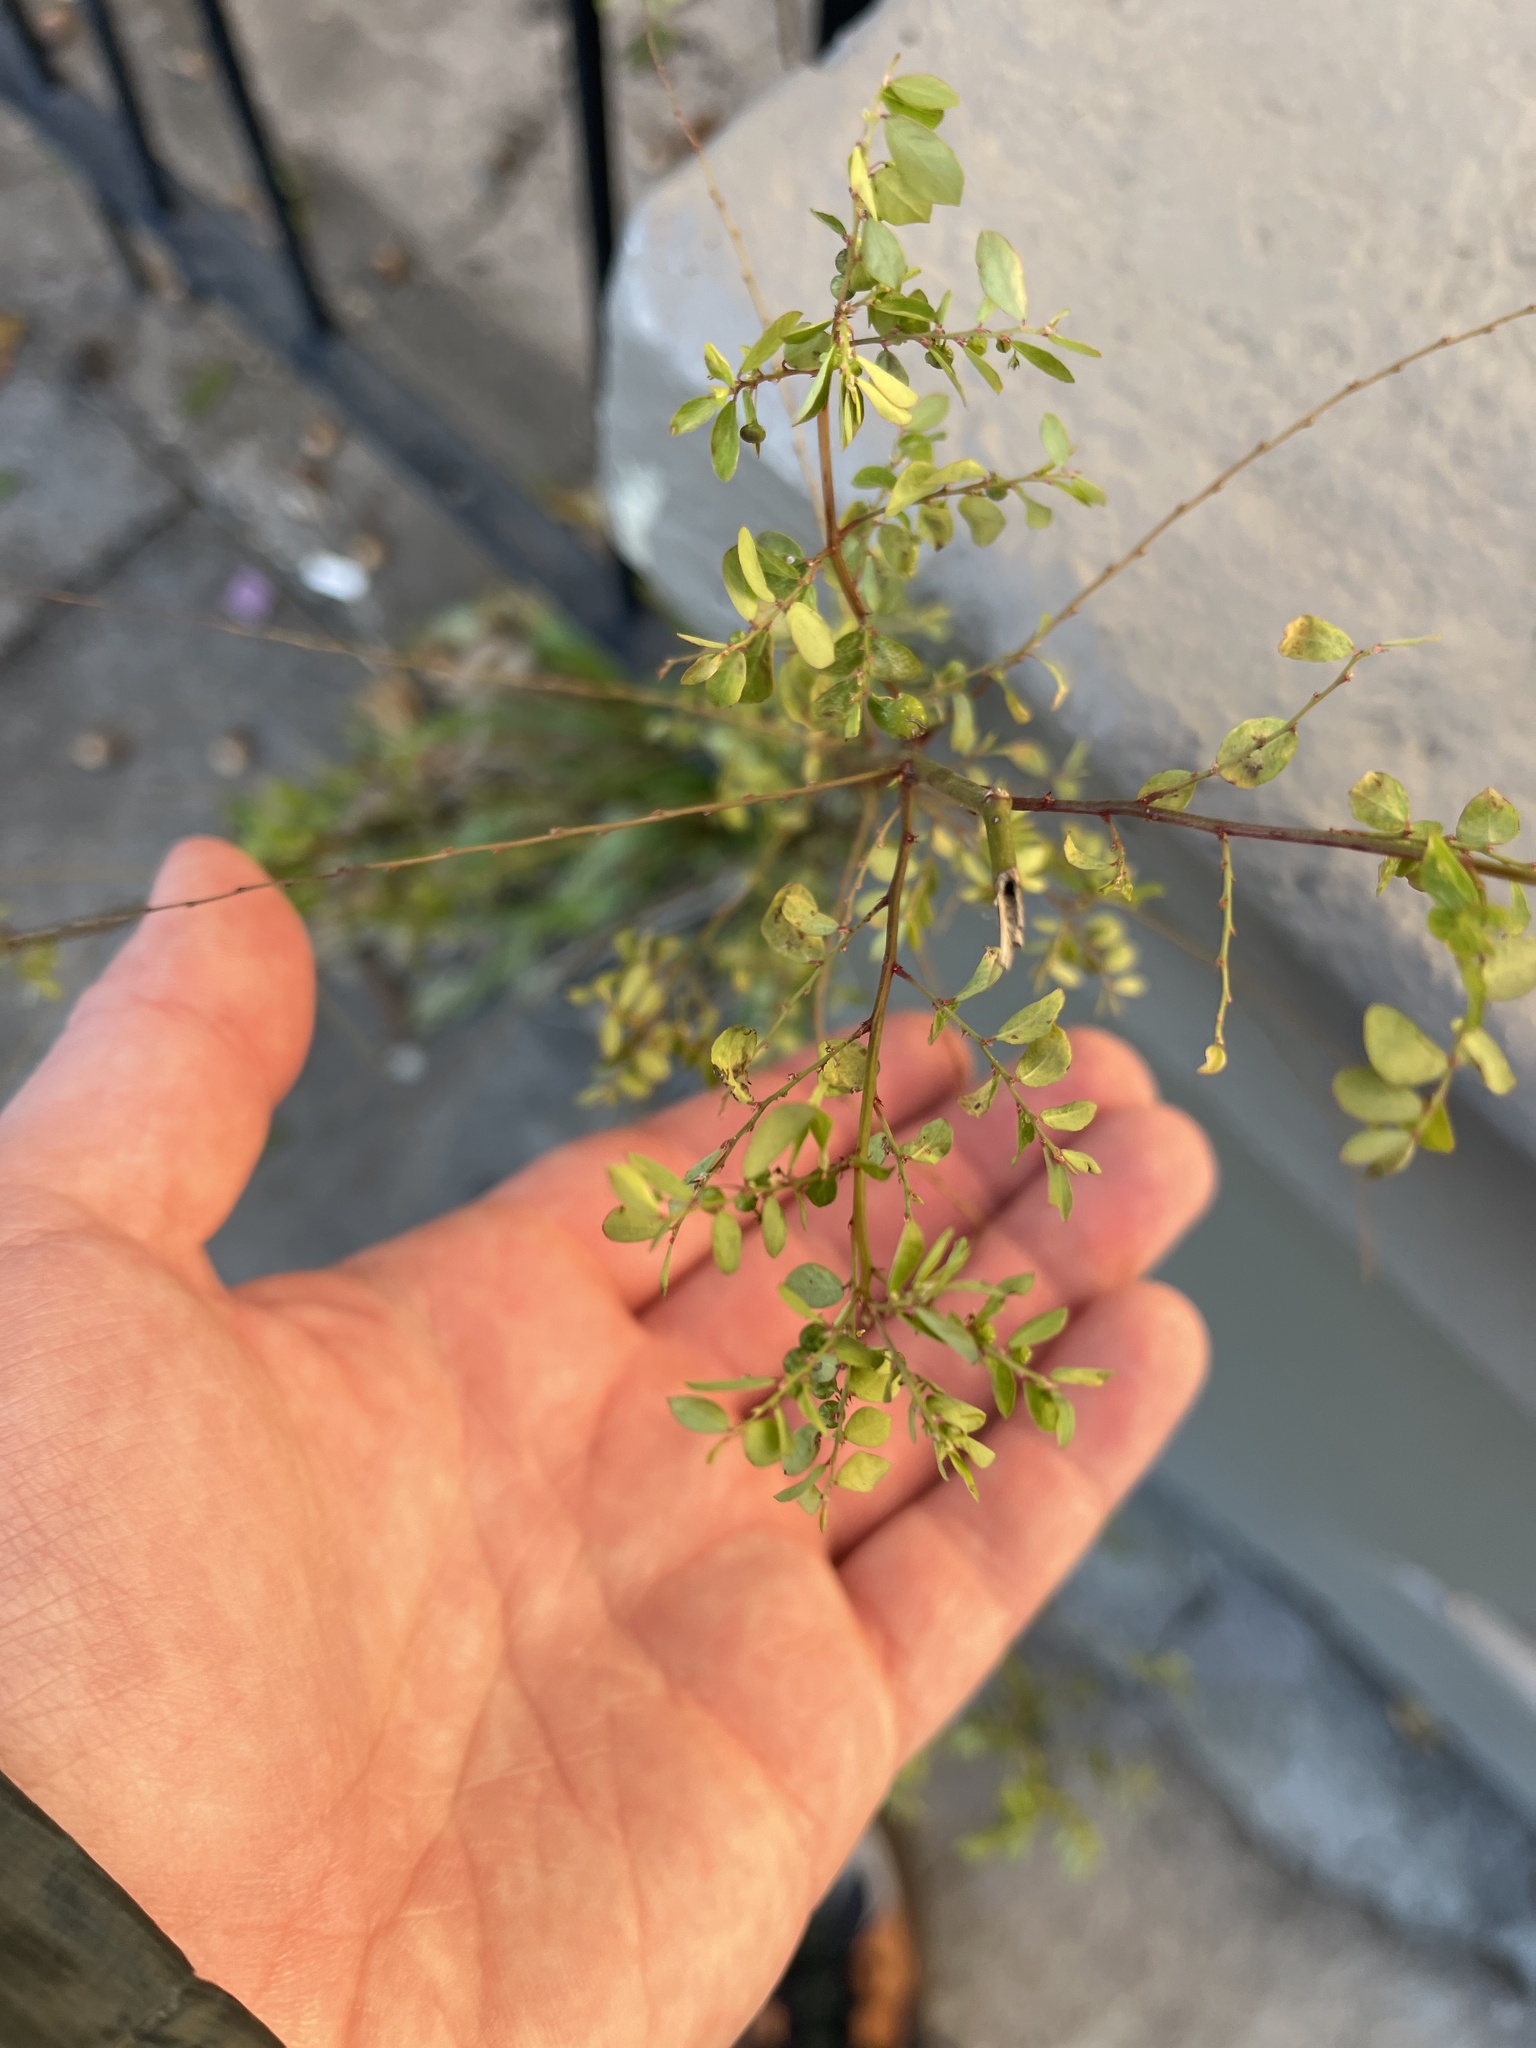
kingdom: Plantae
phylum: Tracheophyta
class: Magnoliopsida
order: Malpighiales
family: Phyllanthaceae
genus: Phyllanthus
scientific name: Phyllanthus tenellus
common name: Mascarene island leaf-flower
